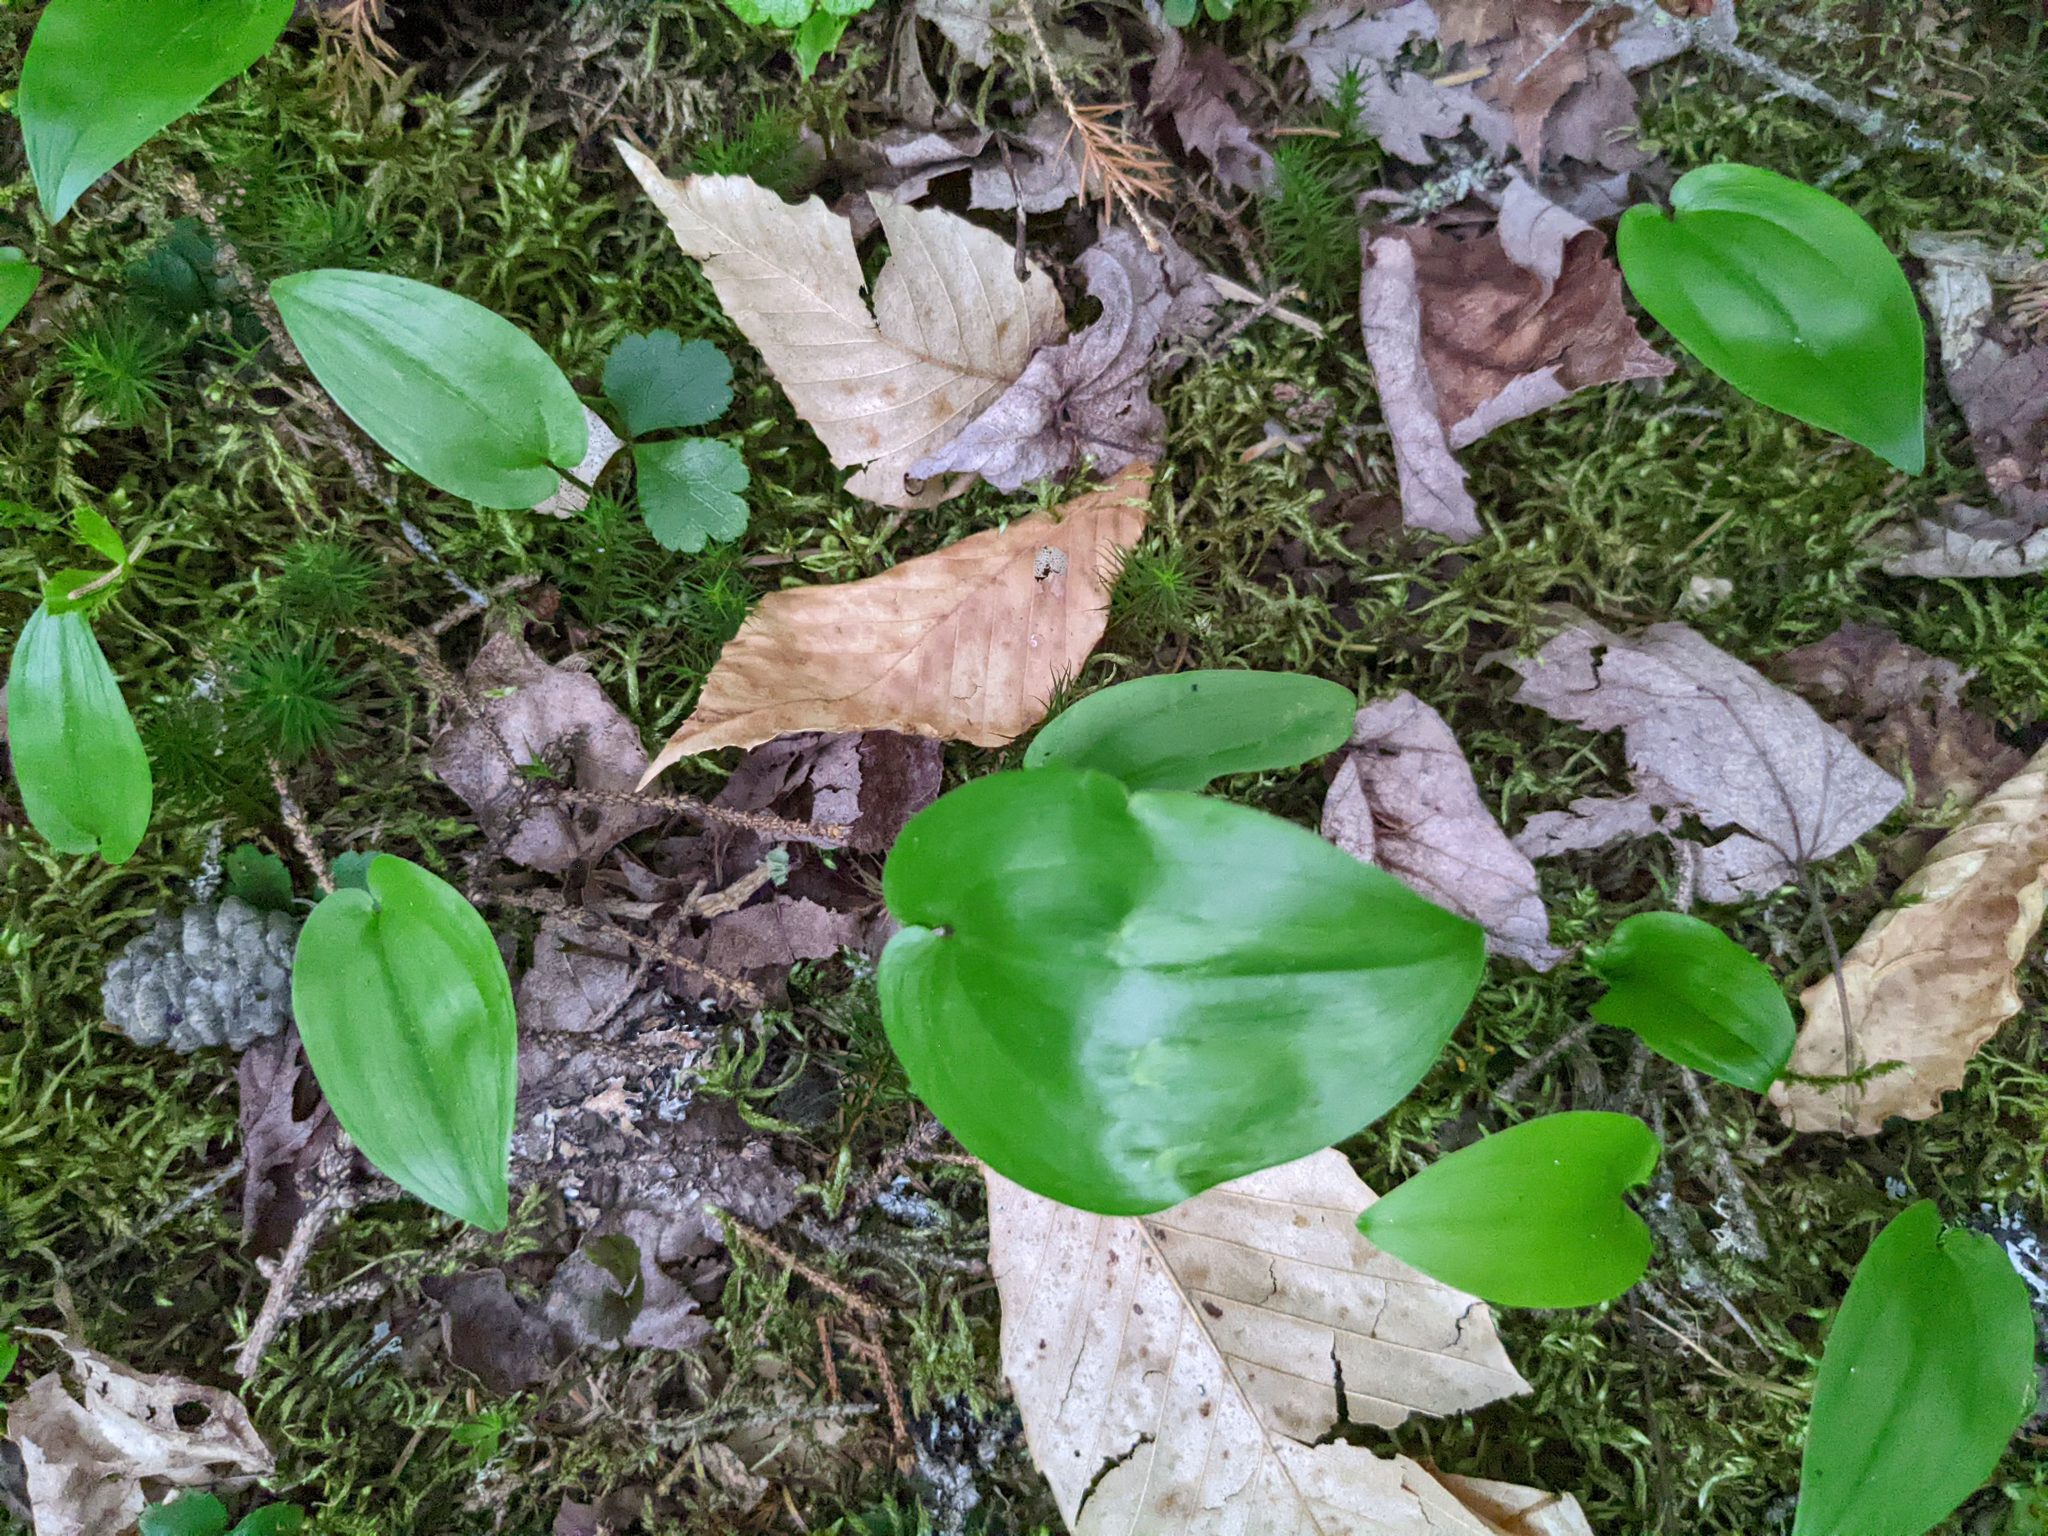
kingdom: Plantae
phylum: Tracheophyta
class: Liliopsida
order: Asparagales
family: Asparagaceae
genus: Maianthemum
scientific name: Maianthemum canadense
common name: False lily-of-the-valley
